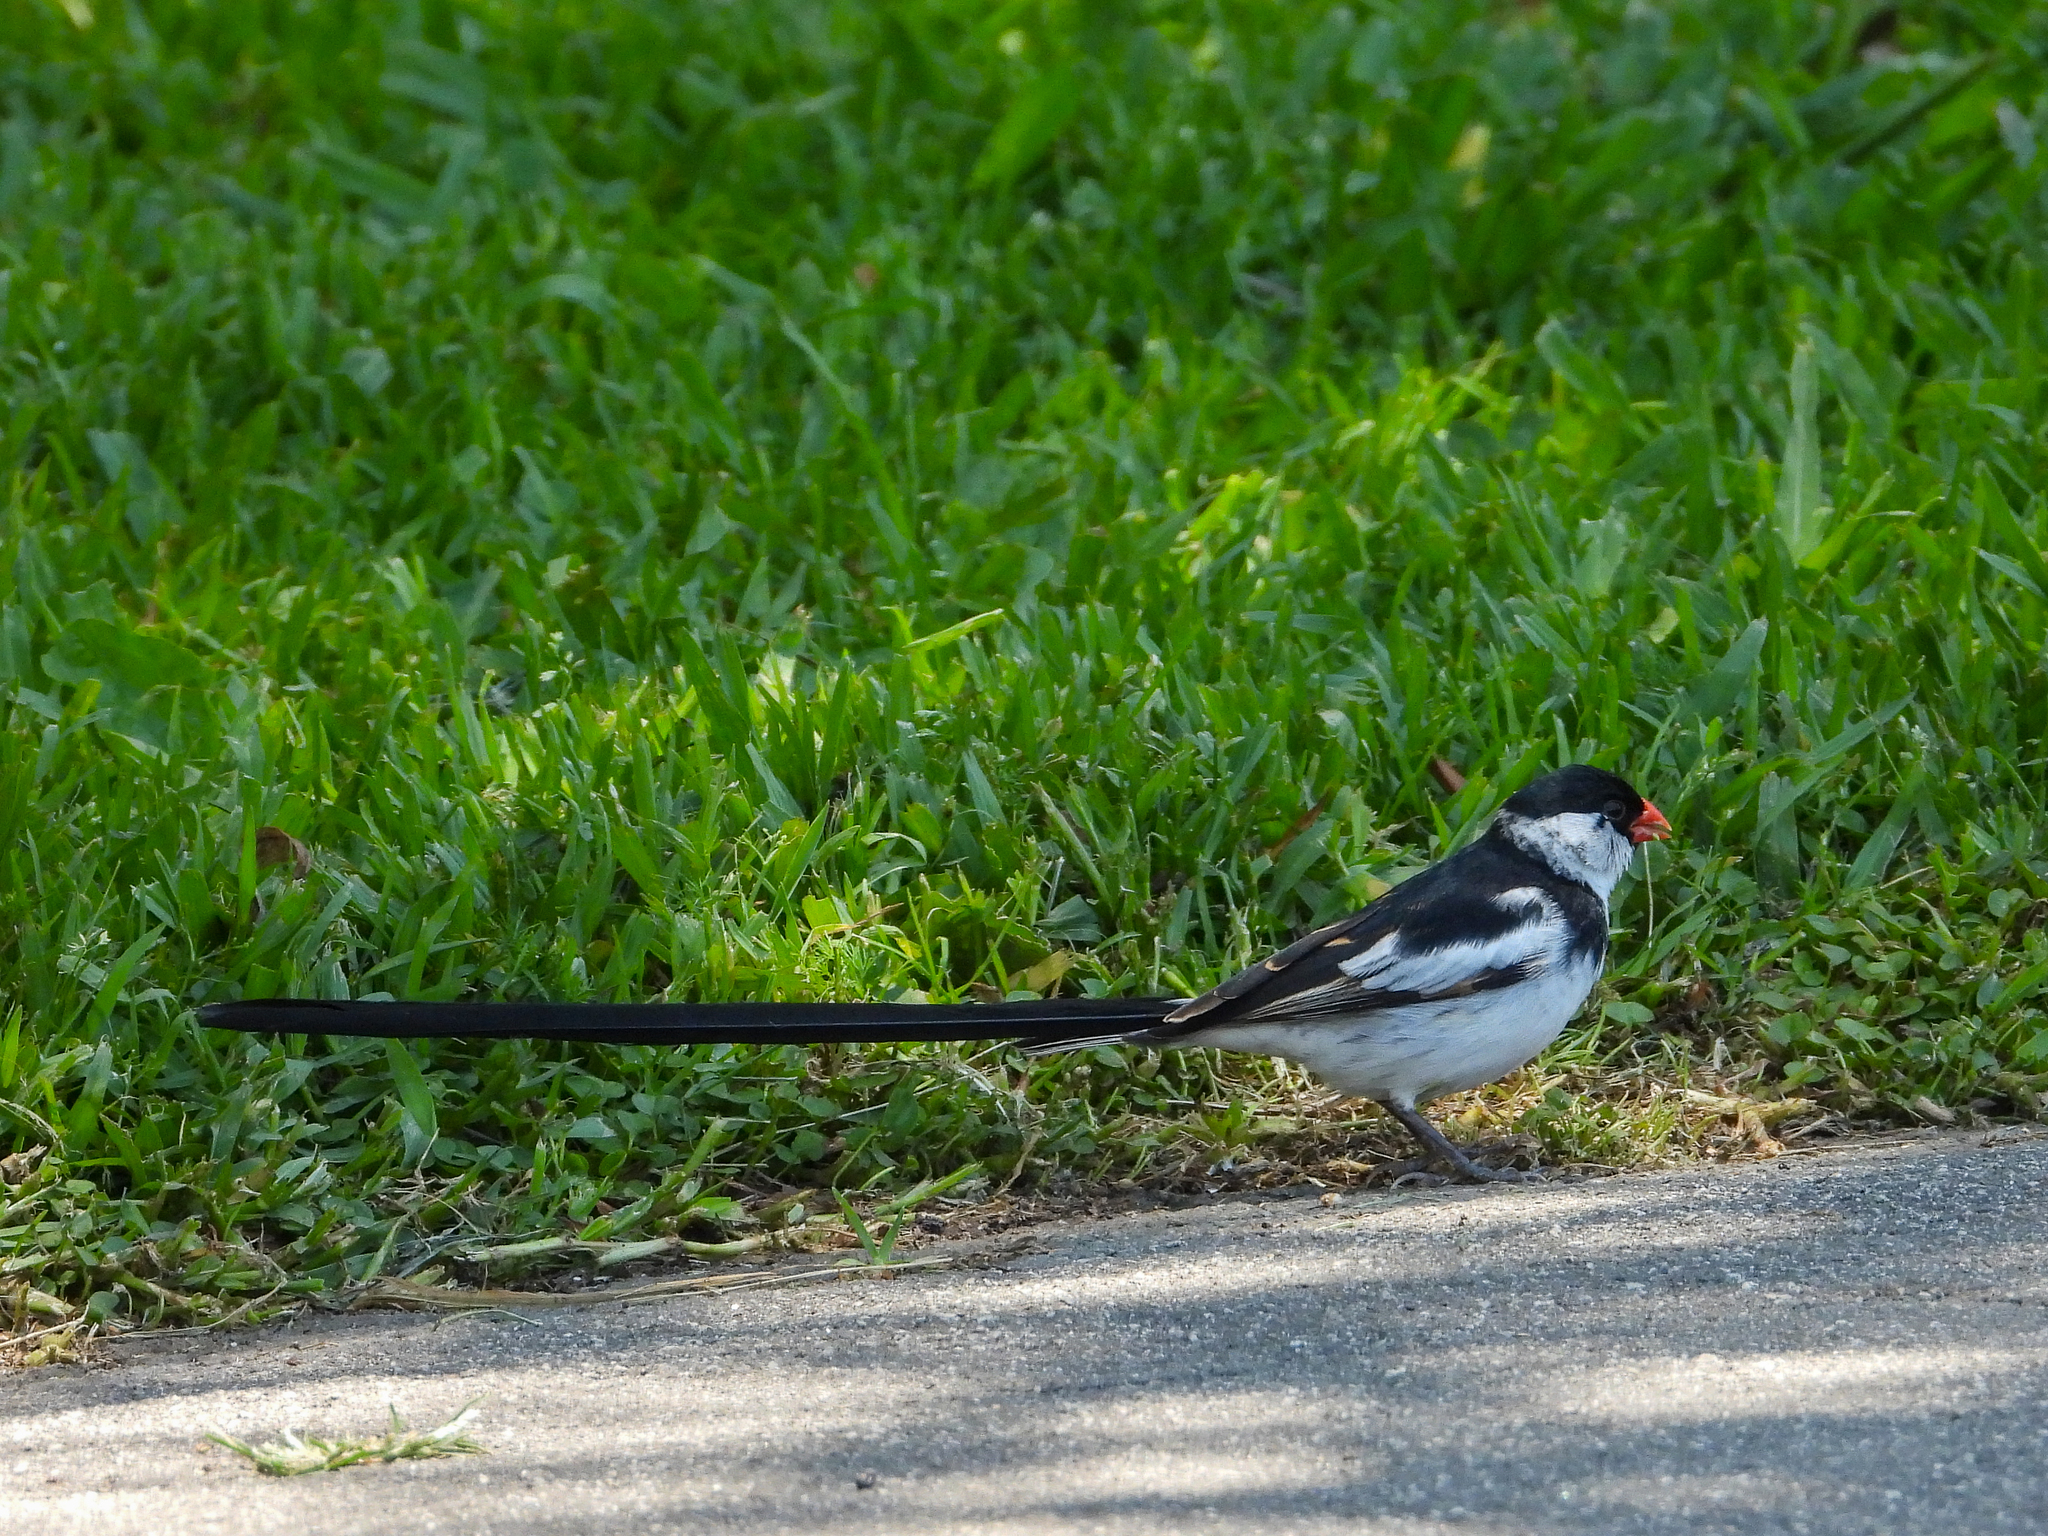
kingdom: Animalia
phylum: Chordata
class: Aves
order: Passeriformes
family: Viduidae
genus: Vidua
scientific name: Vidua macroura
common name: Pin-tailed whydah
